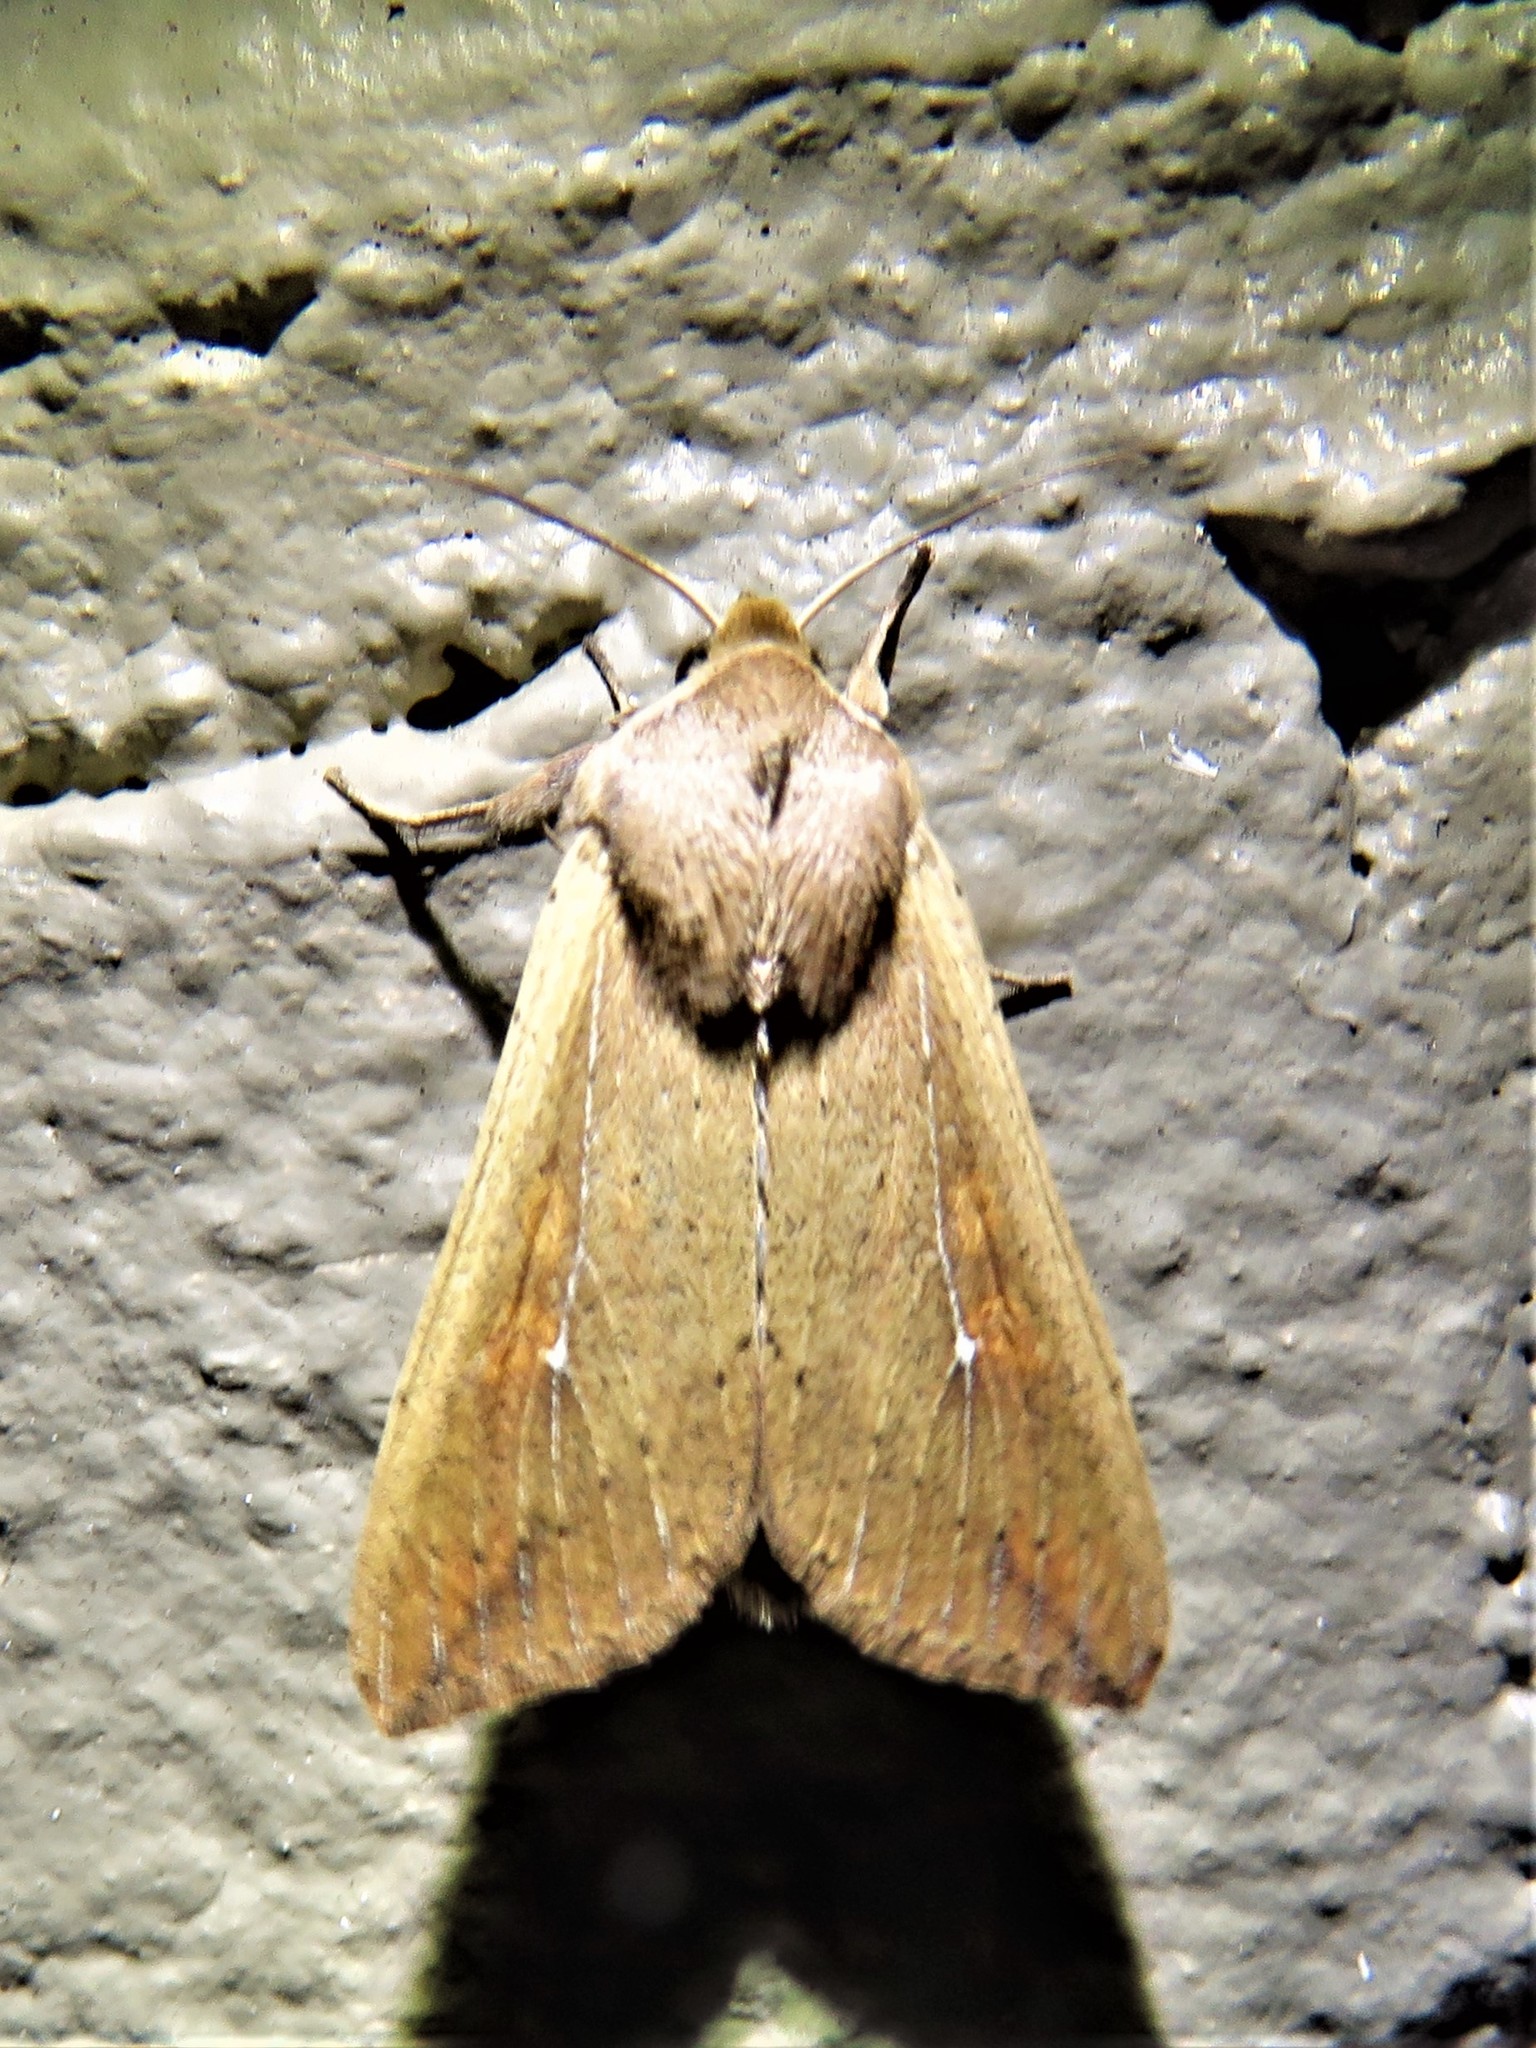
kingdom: Animalia
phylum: Arthropoda
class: Insecta
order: Lepidoptera
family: Noctuidae
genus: Mythimna
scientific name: Mythimna unipuncta
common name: White-speck
